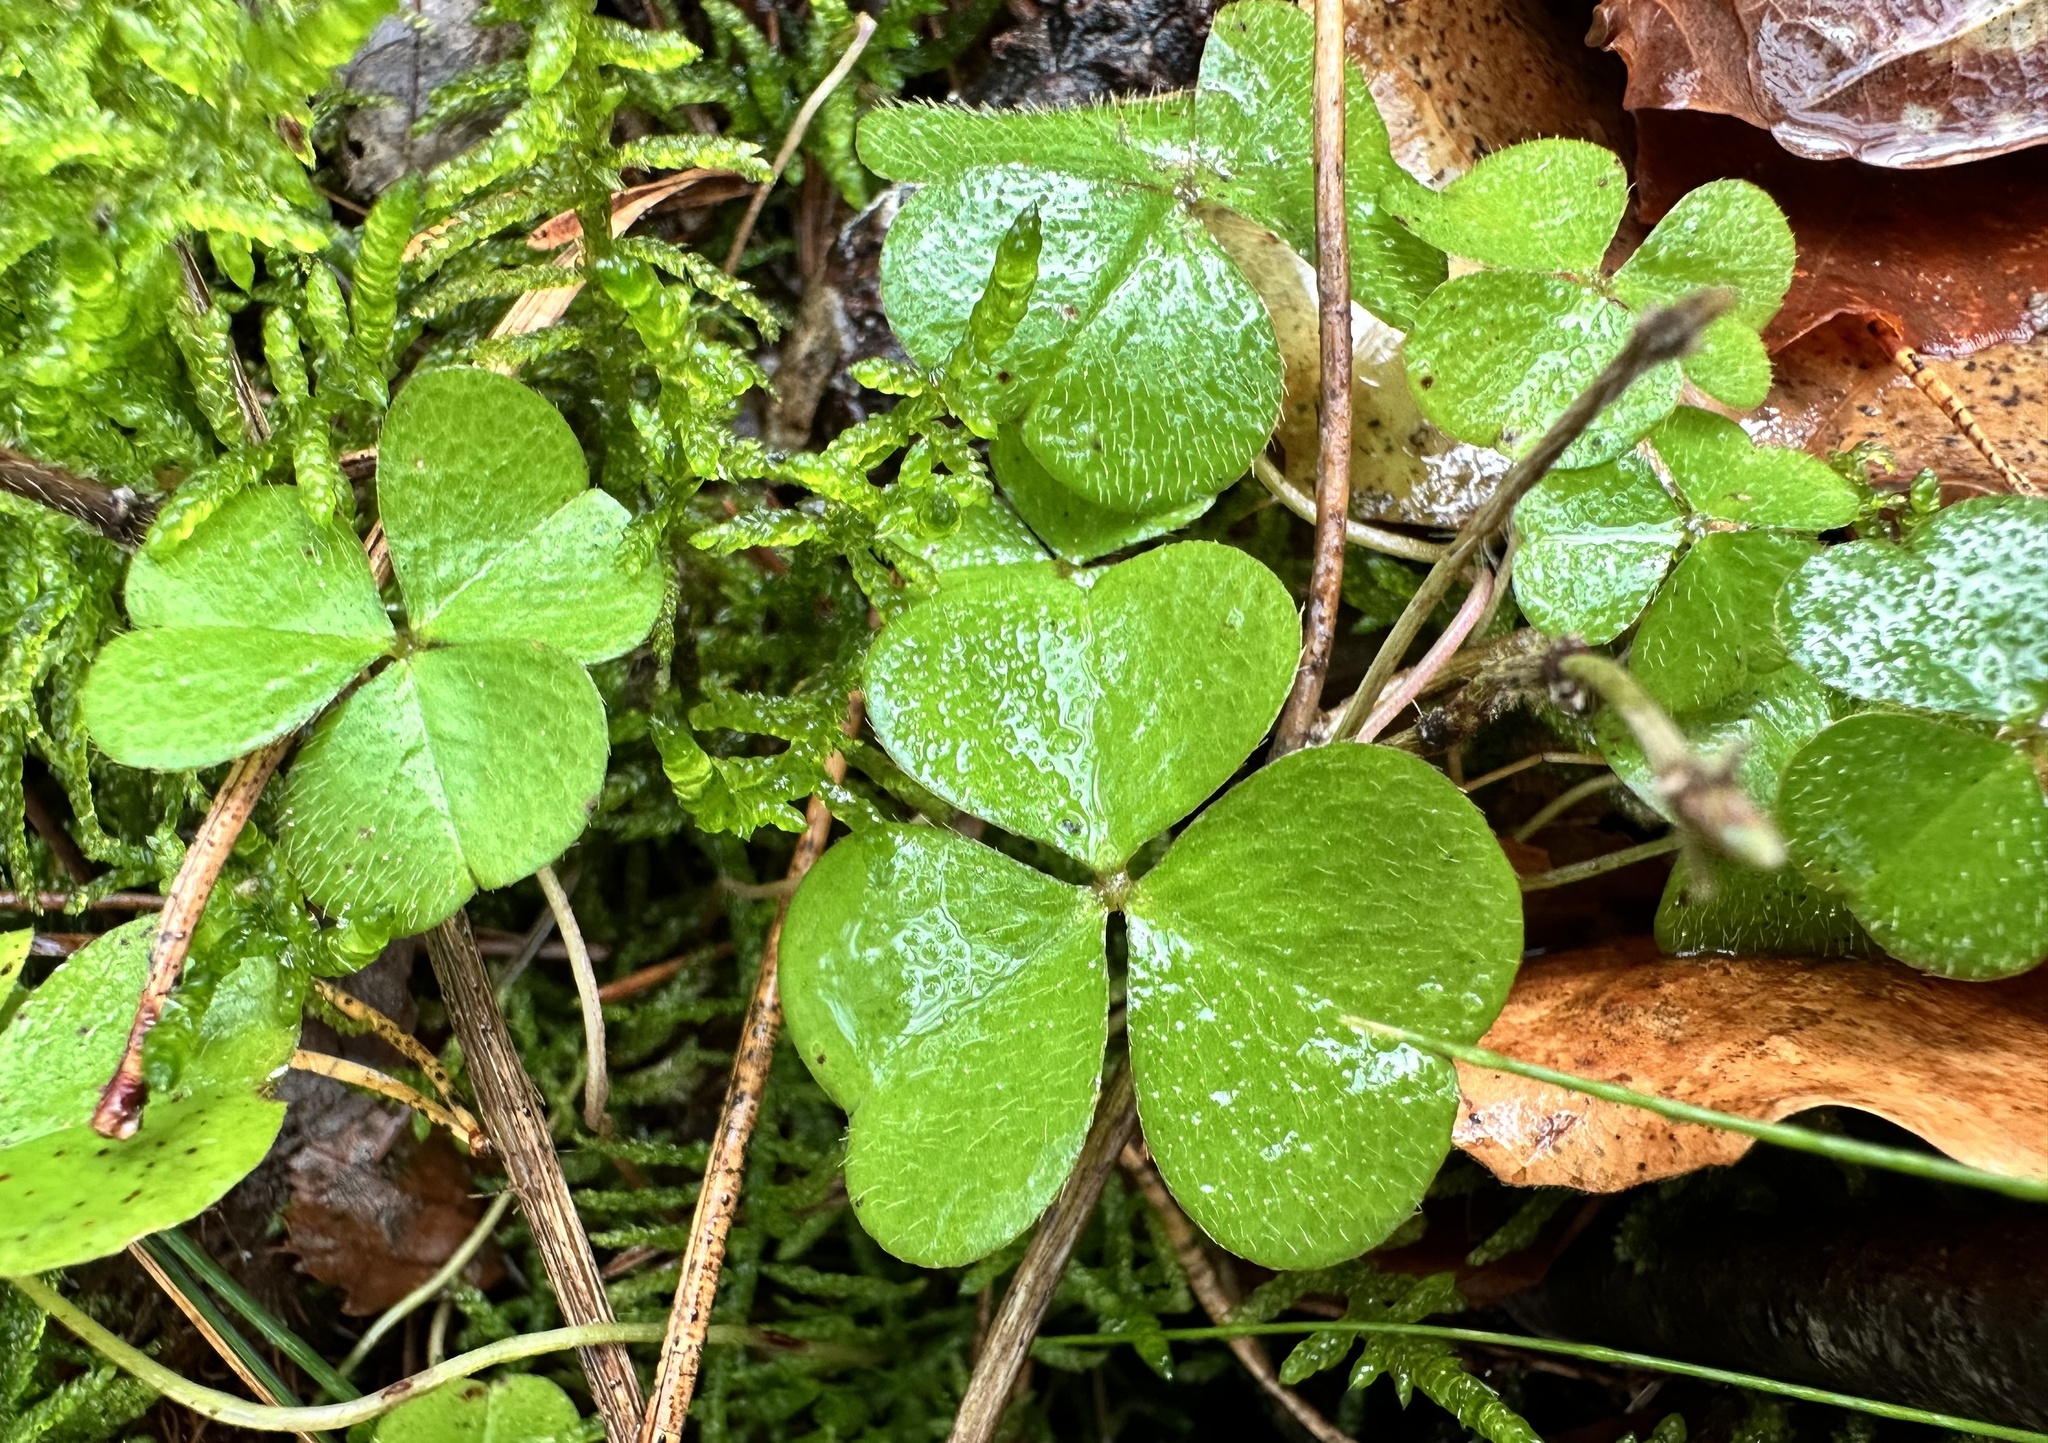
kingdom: Plantae
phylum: Tracheophyta
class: Magnoliopsida
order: Oxalidales
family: Oxalidaceae
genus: Oxalis
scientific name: Oxalis acetosella
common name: Wood-sorrel
